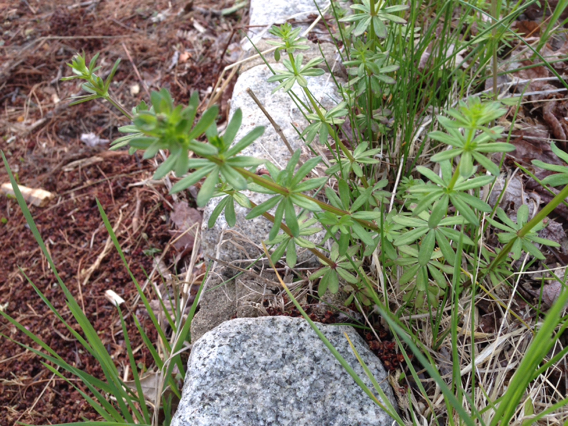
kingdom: Plantae
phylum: Tracheophyta
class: Magnoliopsida
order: Gentianales
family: Rubiaceae
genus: Galium
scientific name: Galium mollugo
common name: Hedge bedstraw
